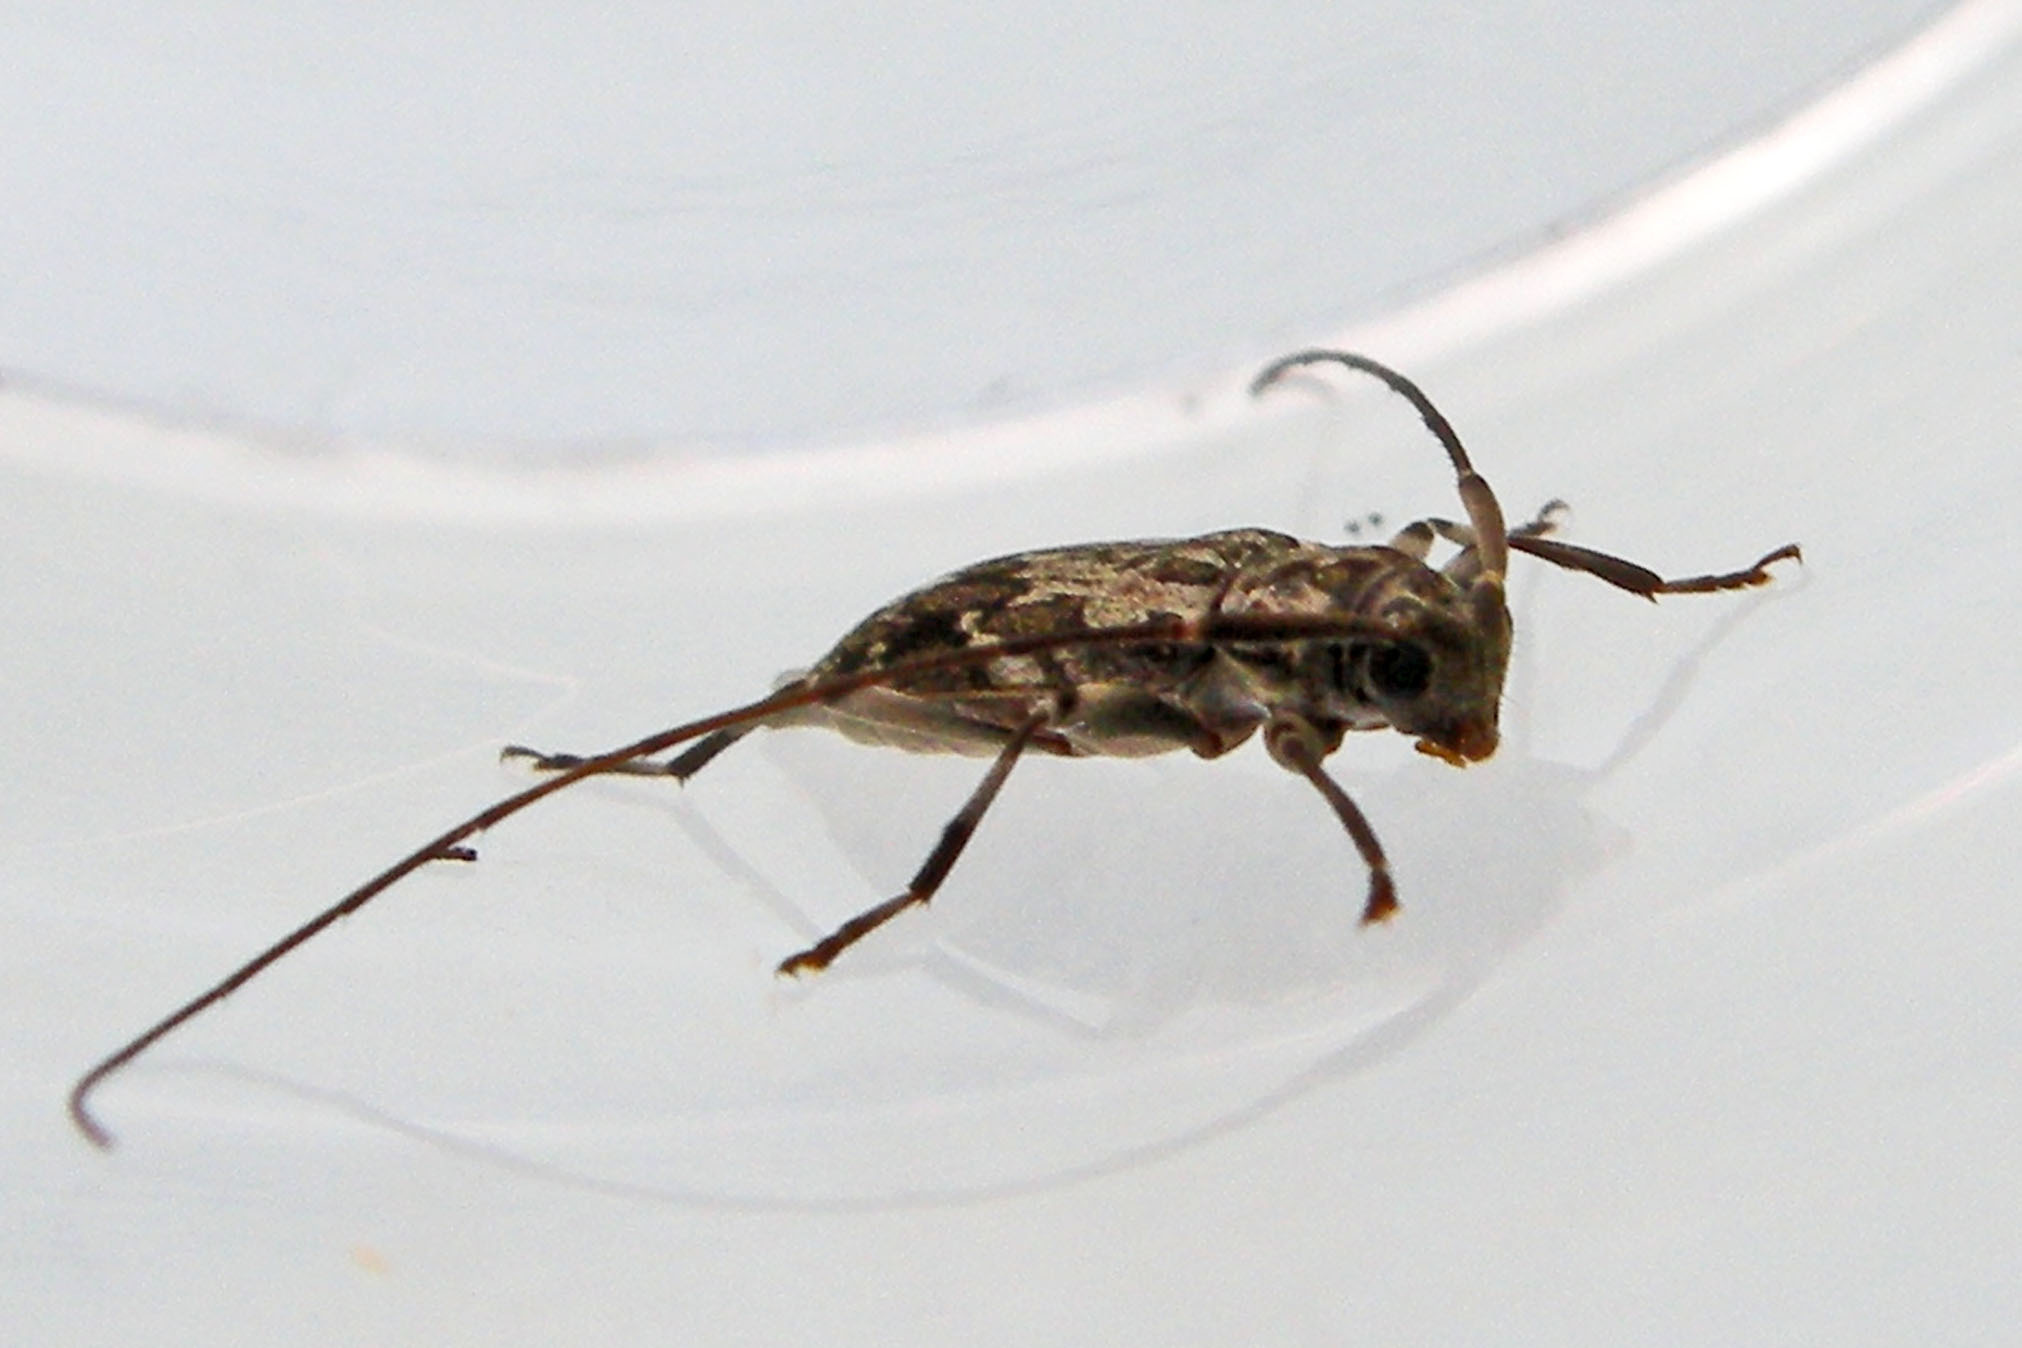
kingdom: Animalia
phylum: Arthropoda
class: Insecta
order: Coleoptera
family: Cerambycidae
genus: Lepturges
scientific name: Lepturges confluens
